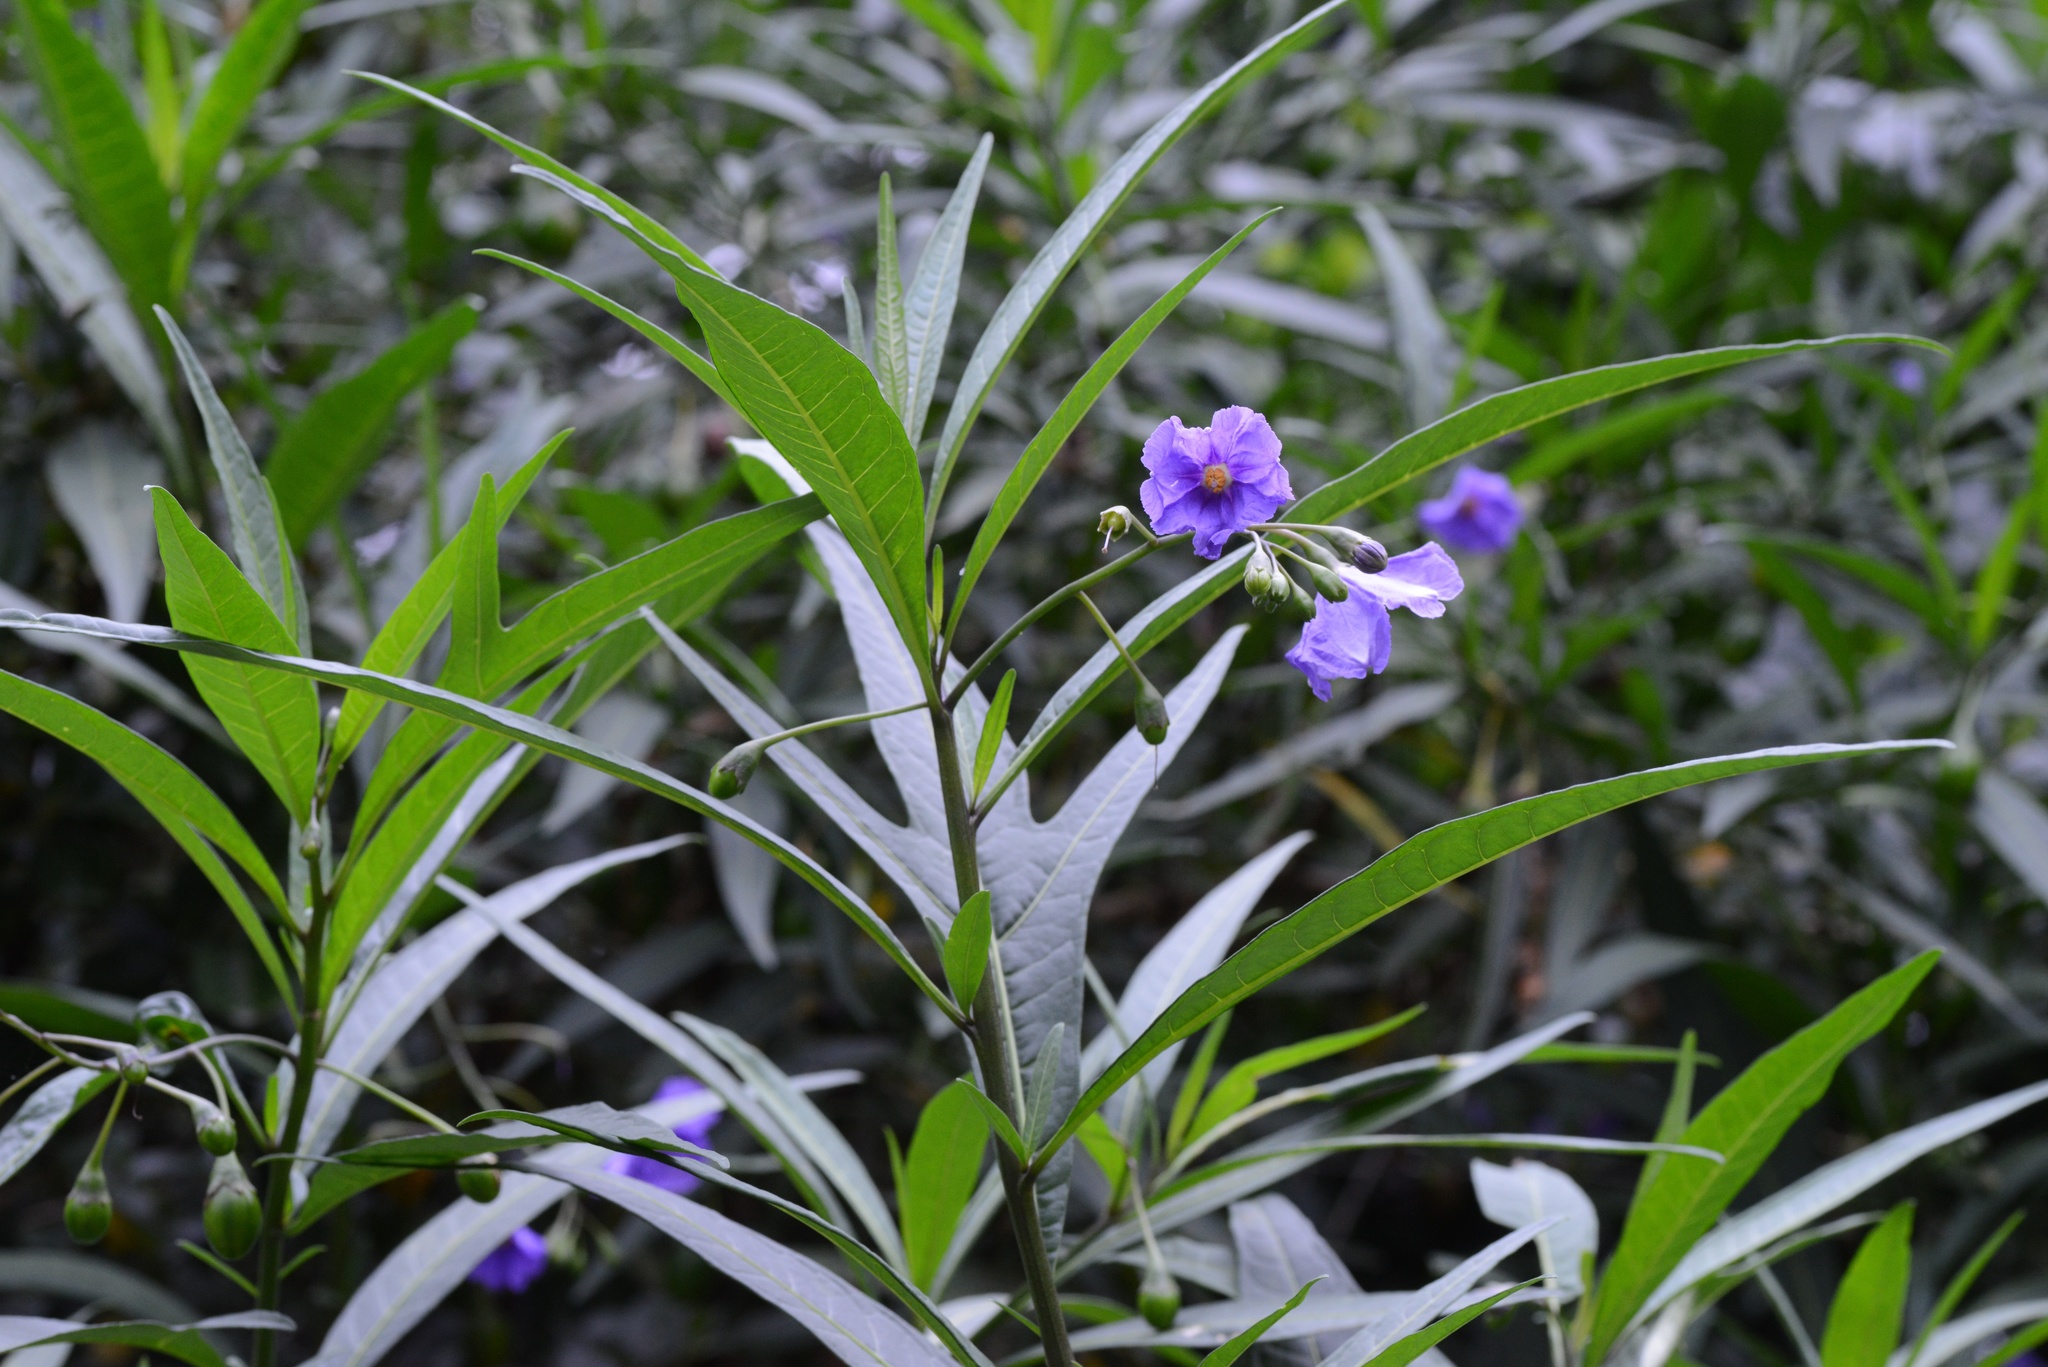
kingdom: Plantae
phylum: Tracheophyta
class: Magnoliopsida
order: Solanales
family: Solanaceae
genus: Solanum
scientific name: Solanum laciniatum
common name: Kangaroo-apple
